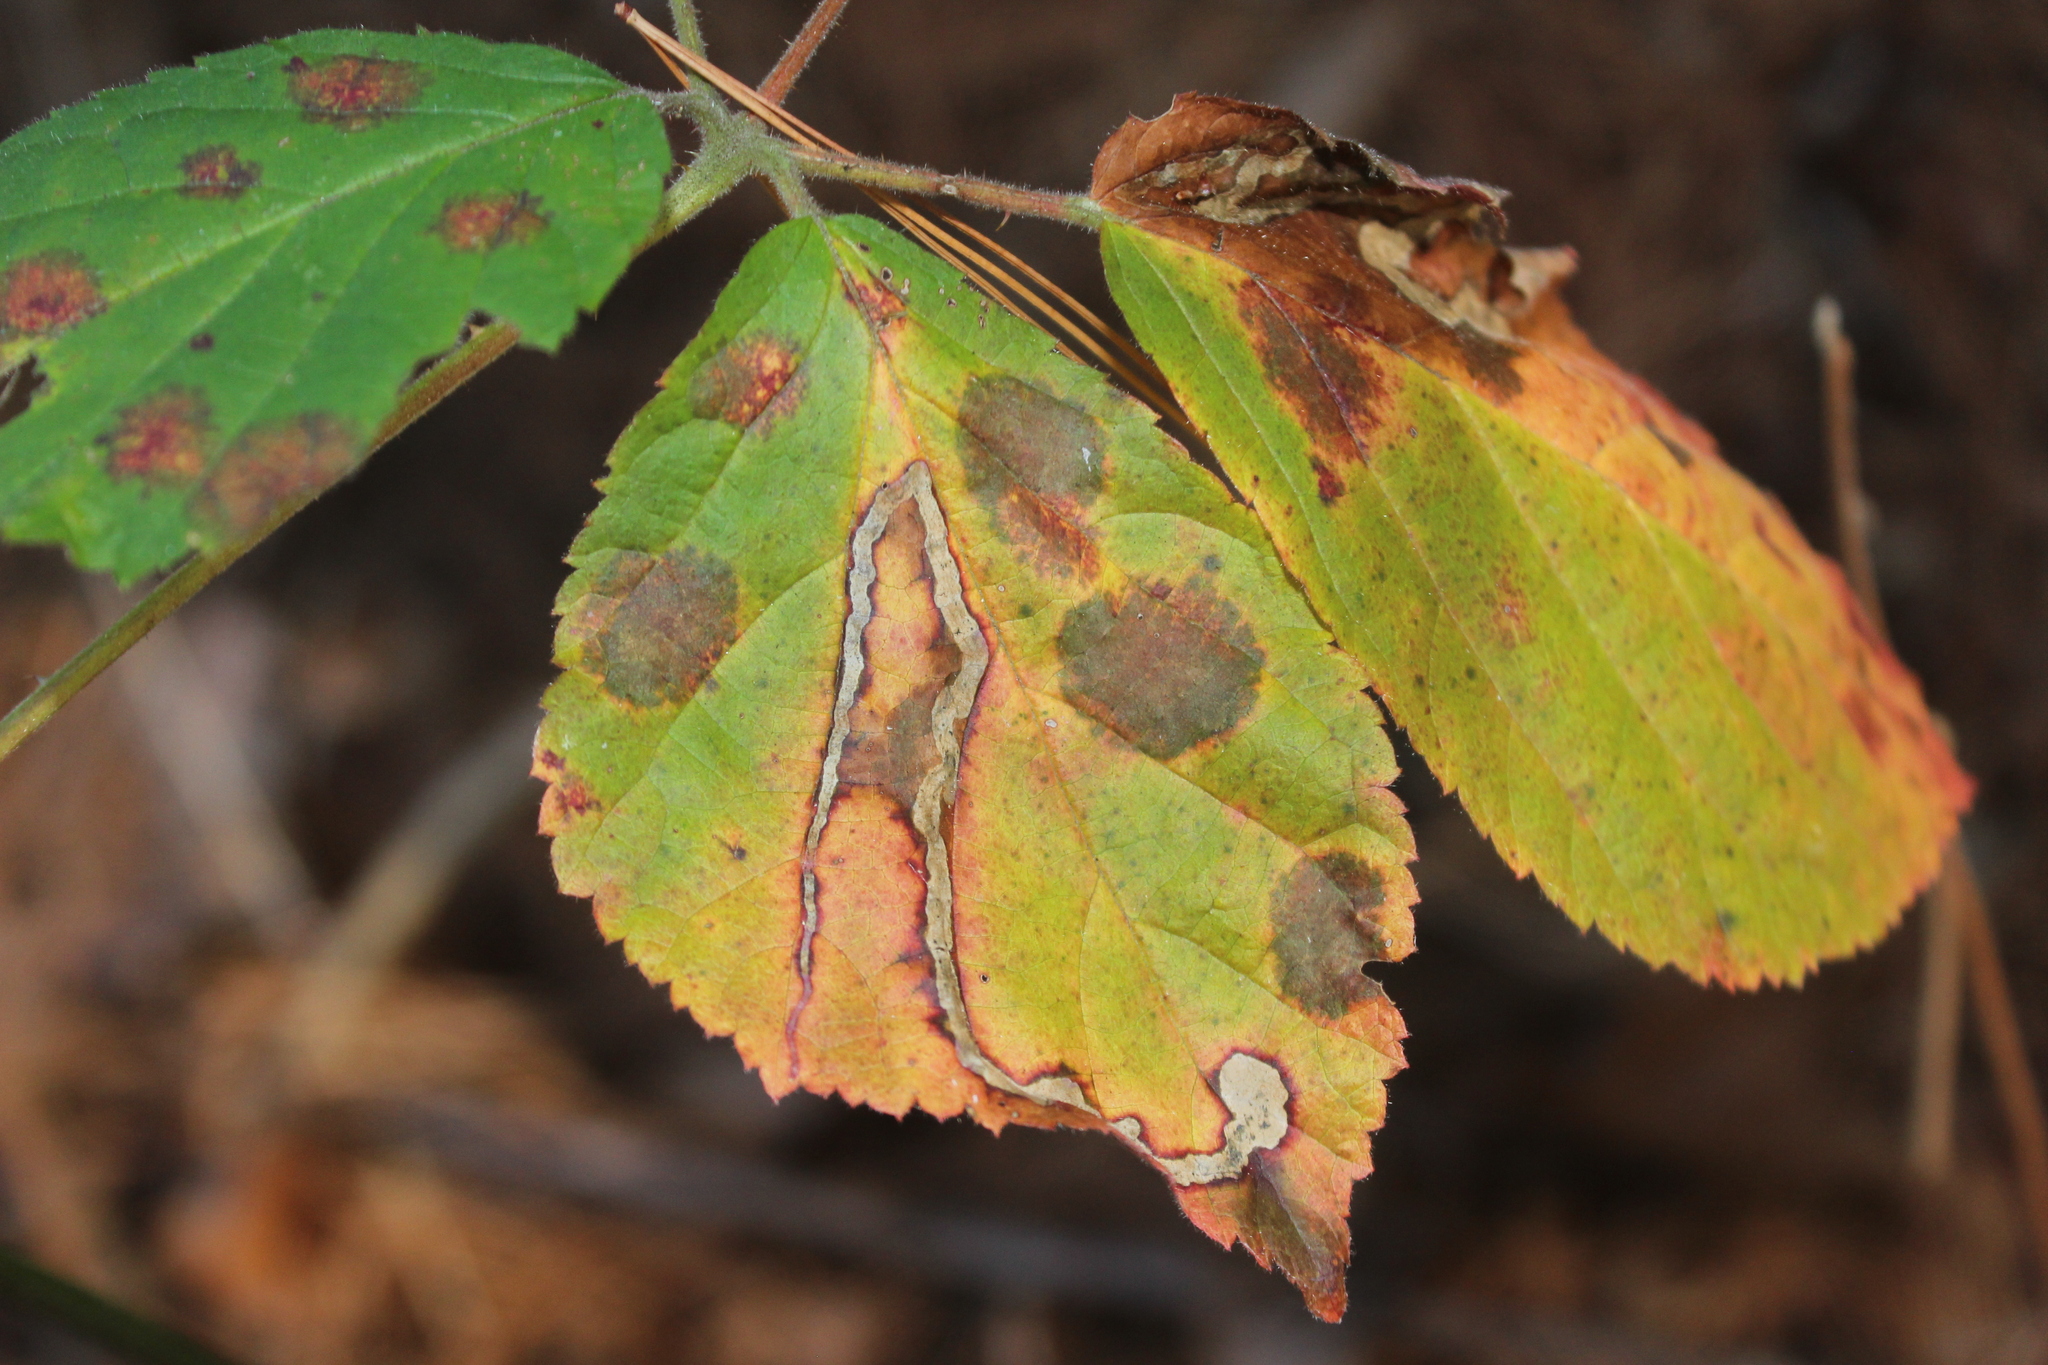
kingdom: Animalia
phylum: Arthropoda
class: Insecta
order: Diptera
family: Agromyzidae
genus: Agromyza
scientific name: Agromyza vockerothi
